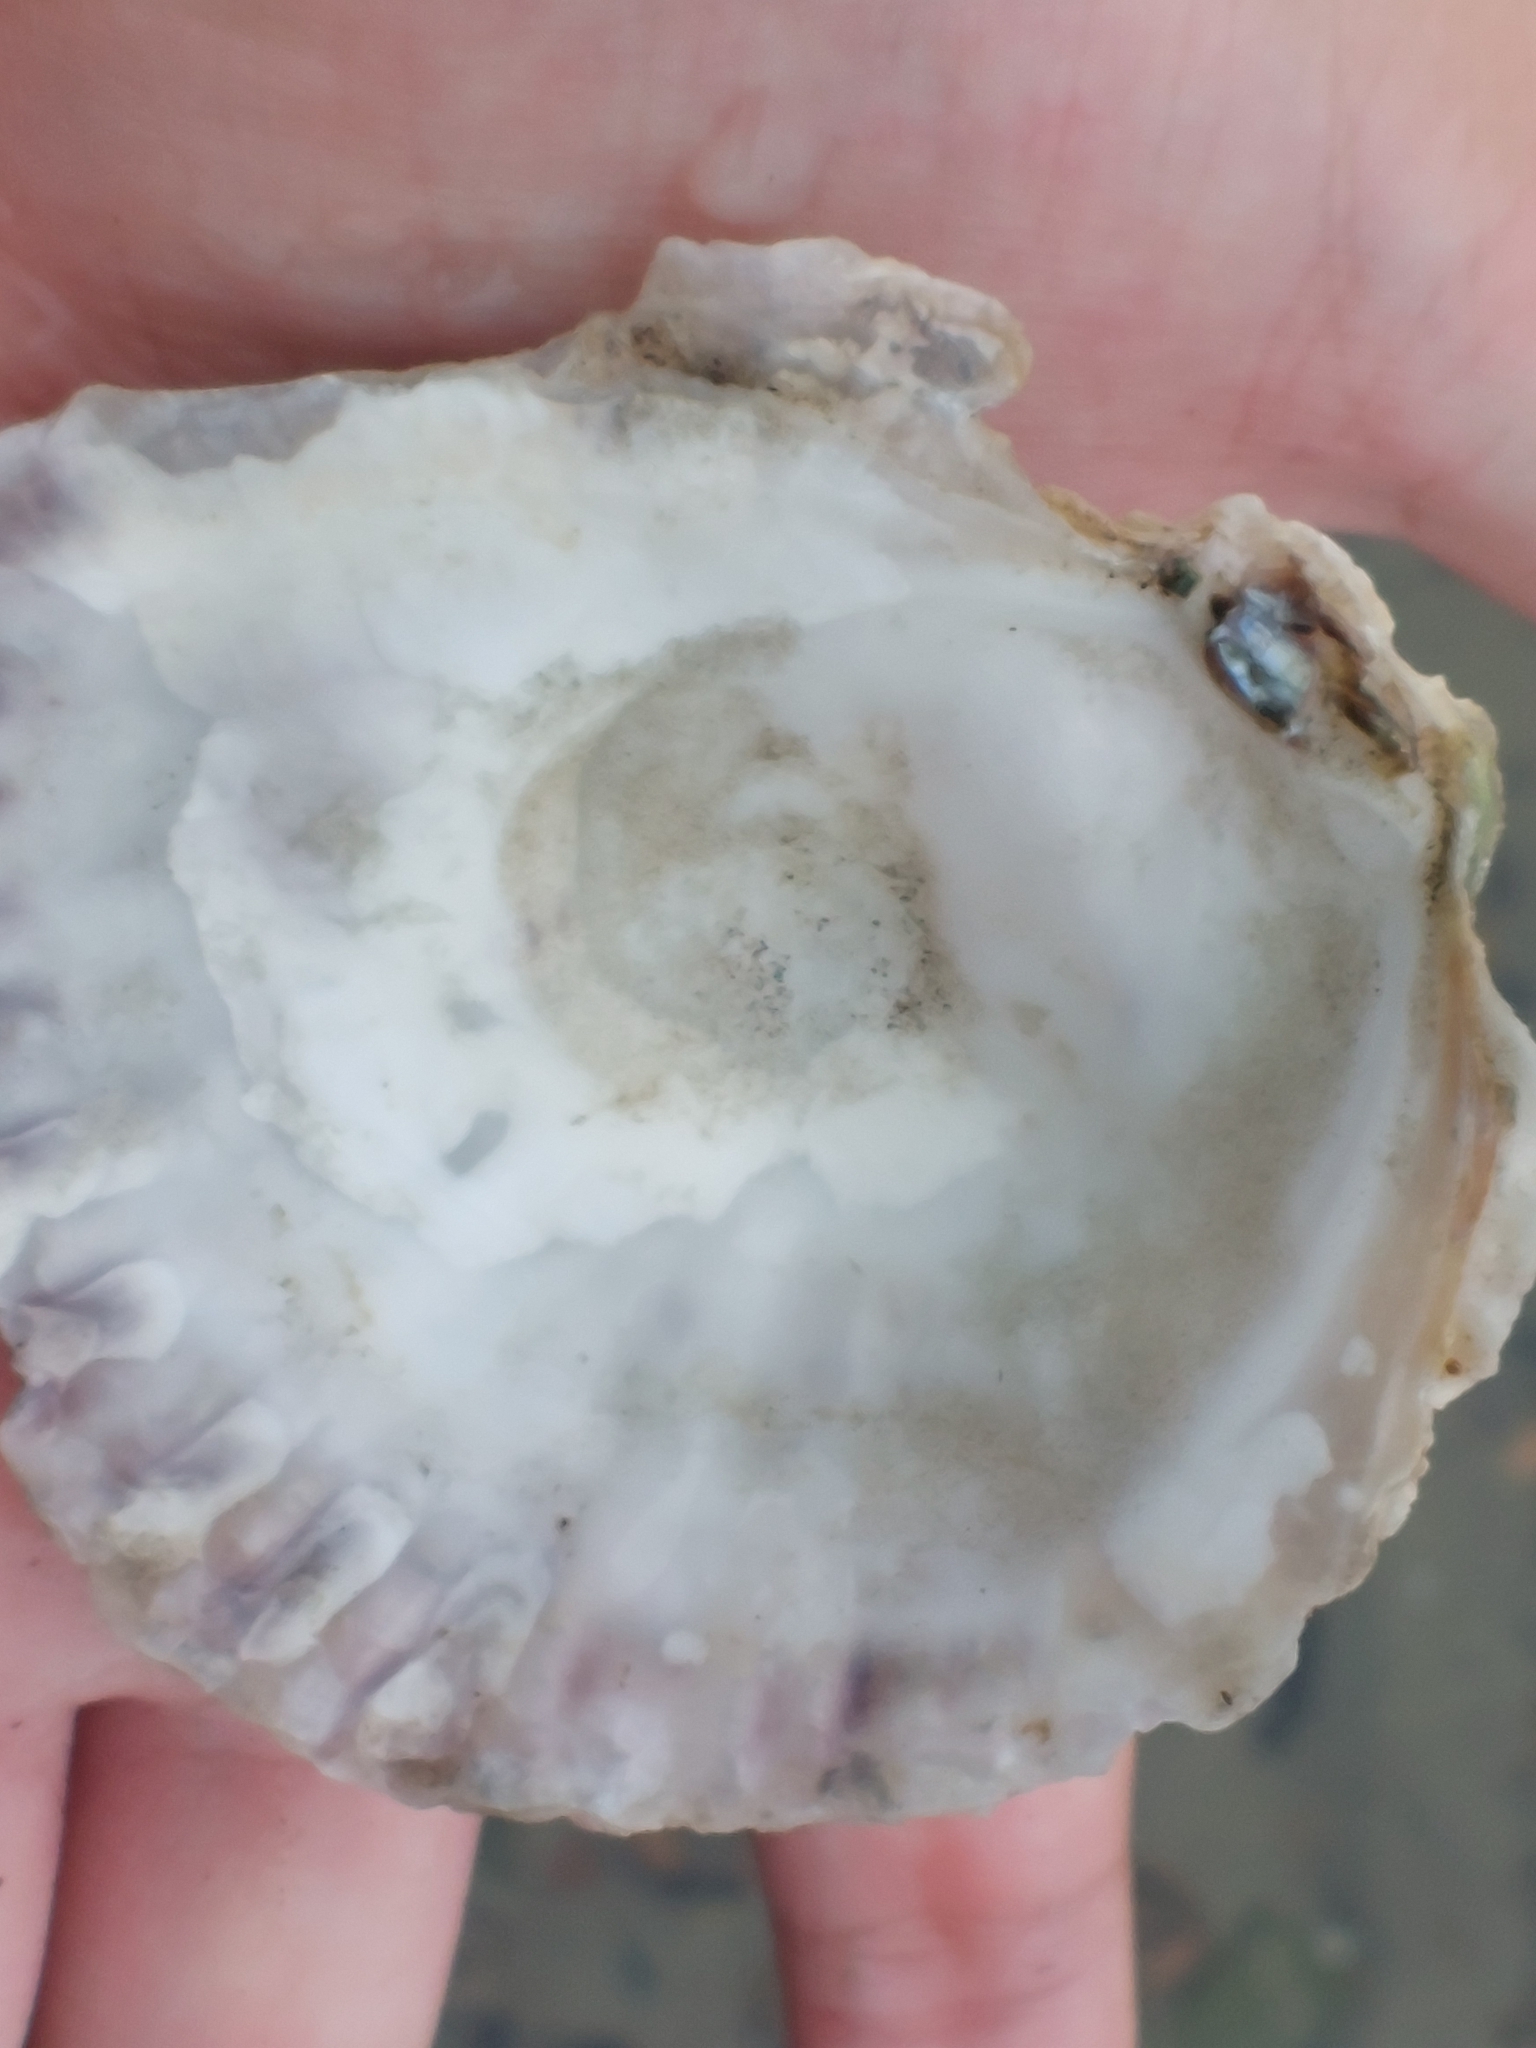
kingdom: Animalia
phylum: Mollusca
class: Bivalvia
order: Ostreida
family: Ostreidae
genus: Ostrea
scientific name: Ostrea edulis
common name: Flat oyster
